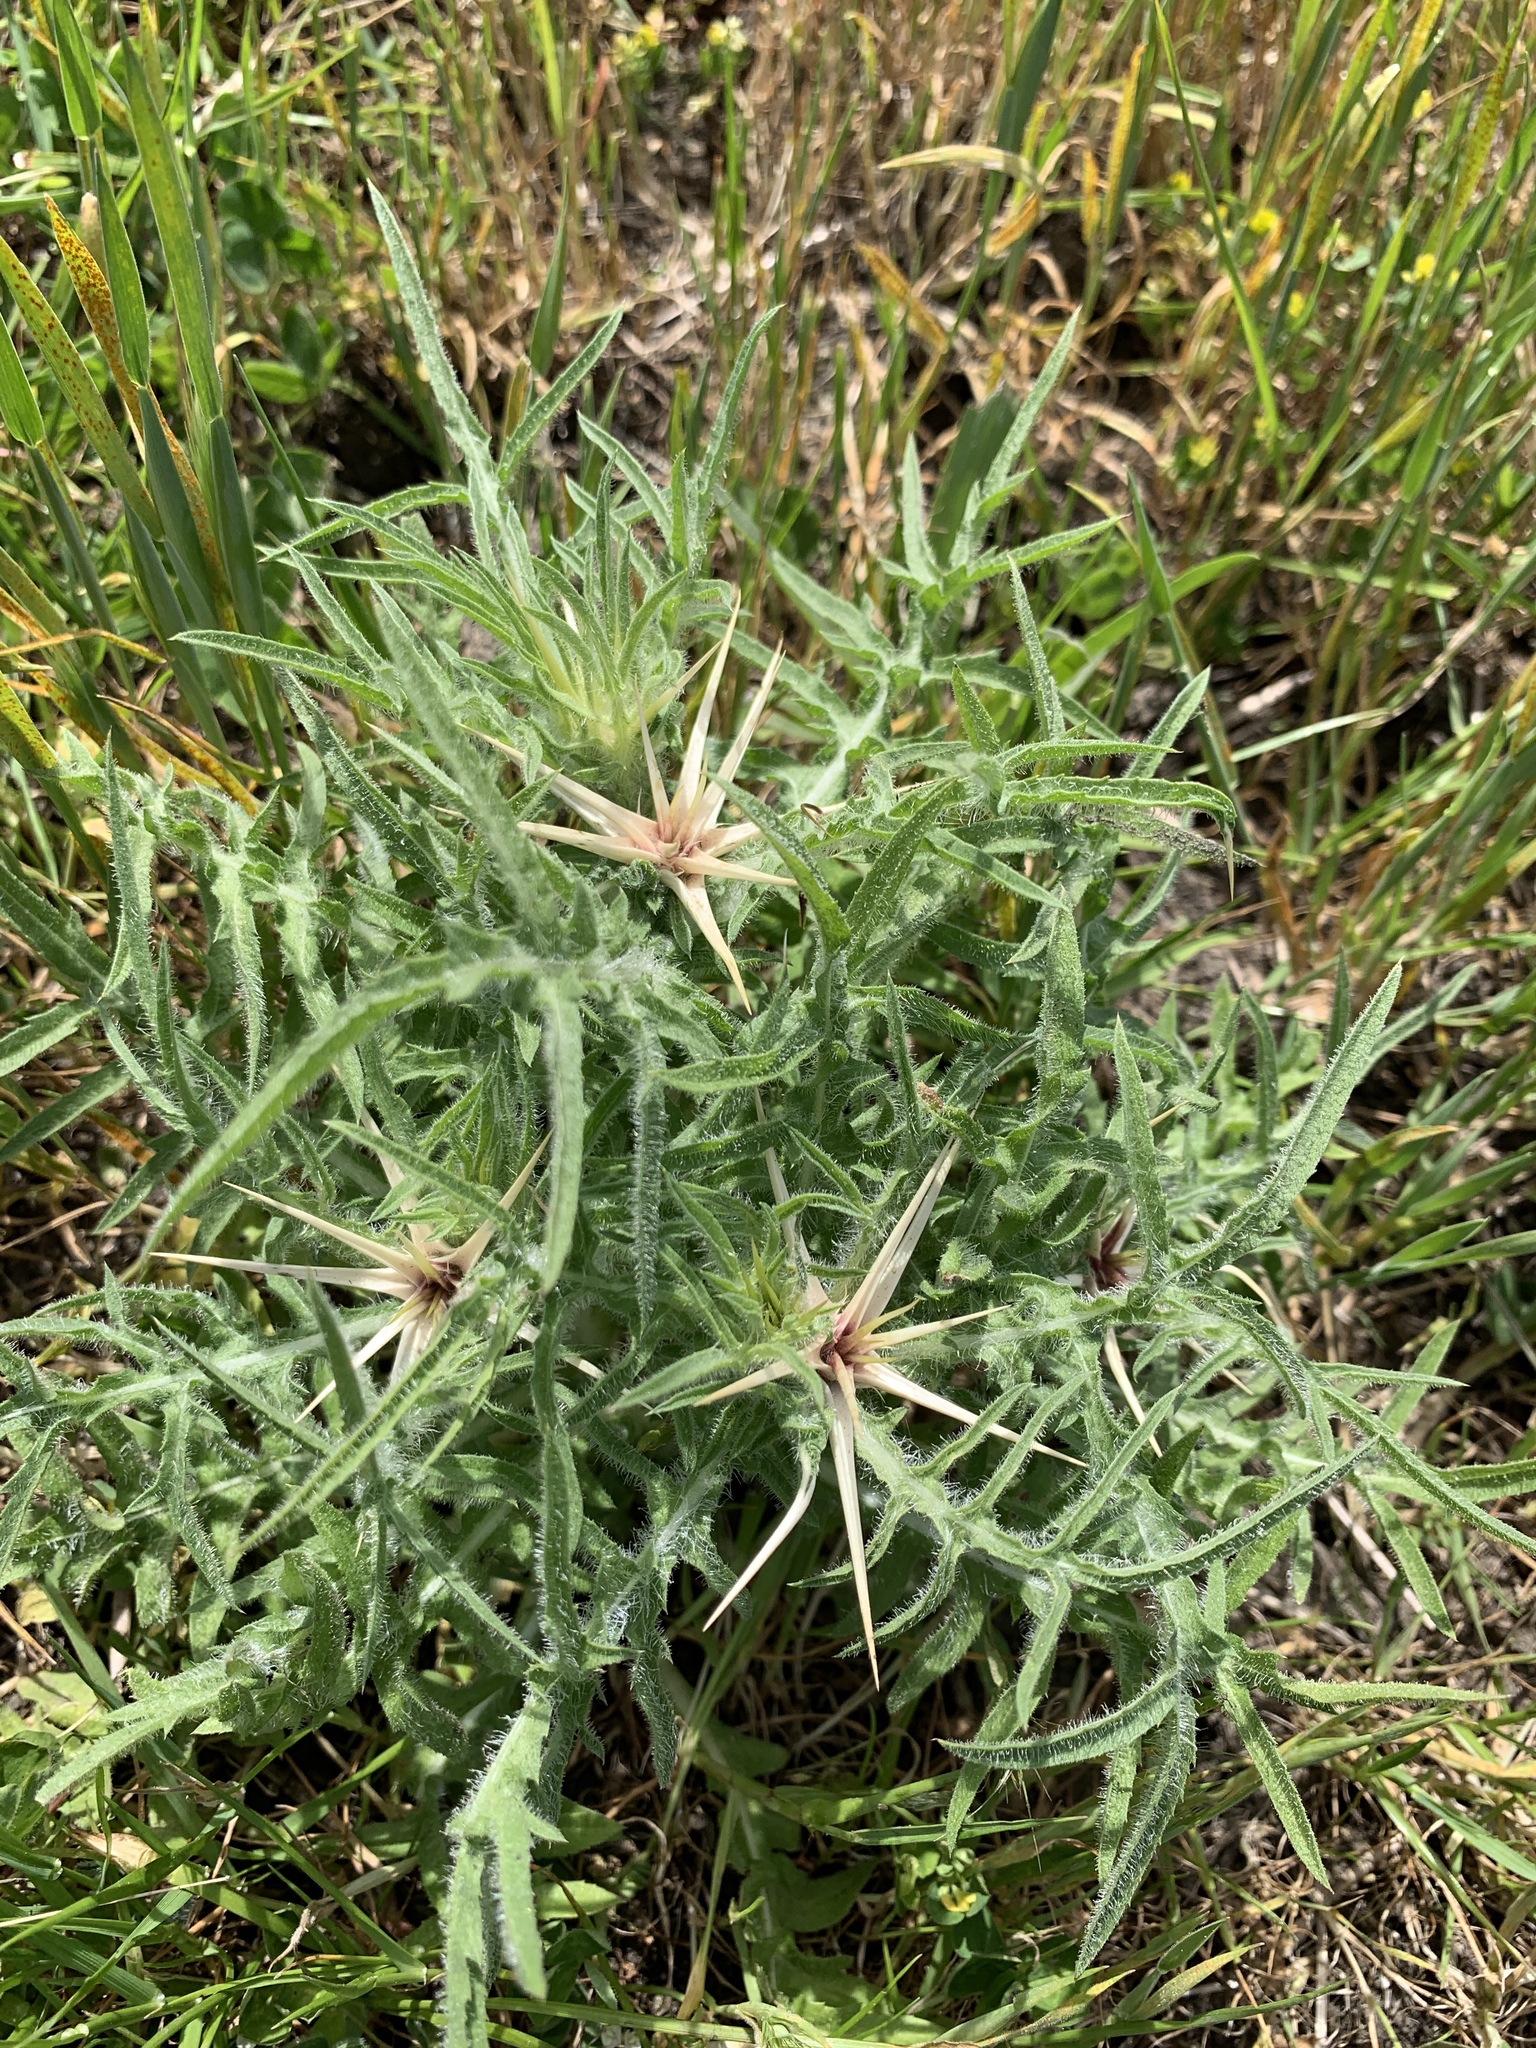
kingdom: Plantae
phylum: Tracheophyta
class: Magnoliopsida
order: Asterales
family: Asteraceae
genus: Centaurea
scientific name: Centaurea calcitrapa
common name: Red star-thistle
